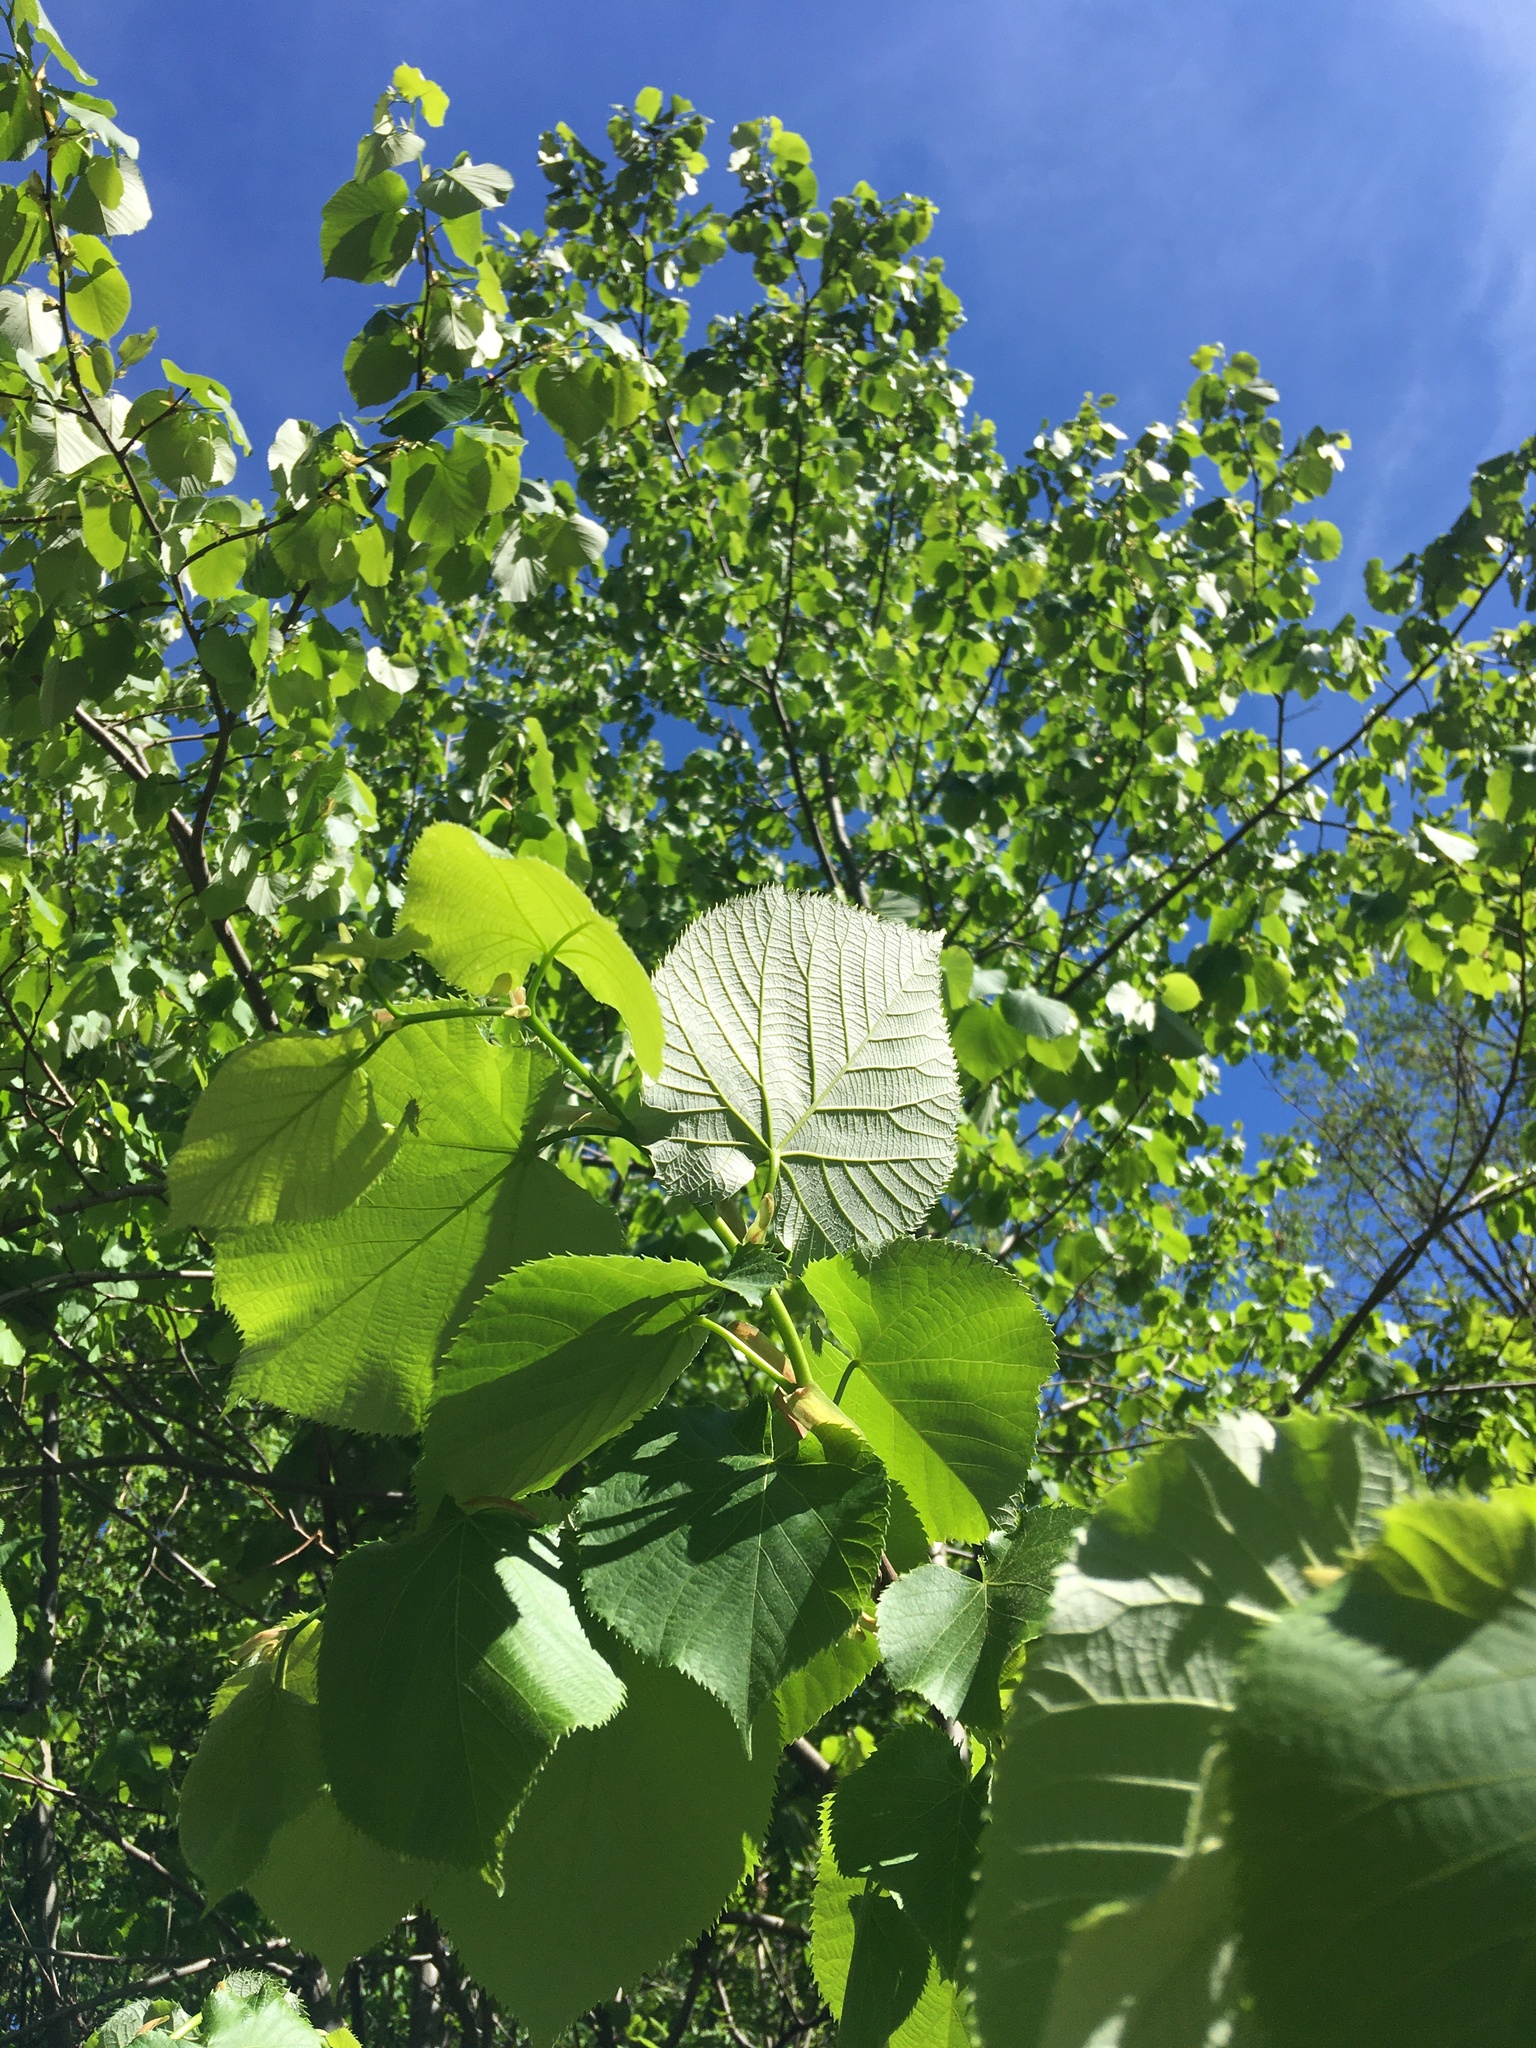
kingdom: Plantae
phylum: Tracheophyta
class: Magnoliopsida
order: Malvales
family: Malvaceae
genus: Tilia
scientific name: Tilia americana
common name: Basswood
